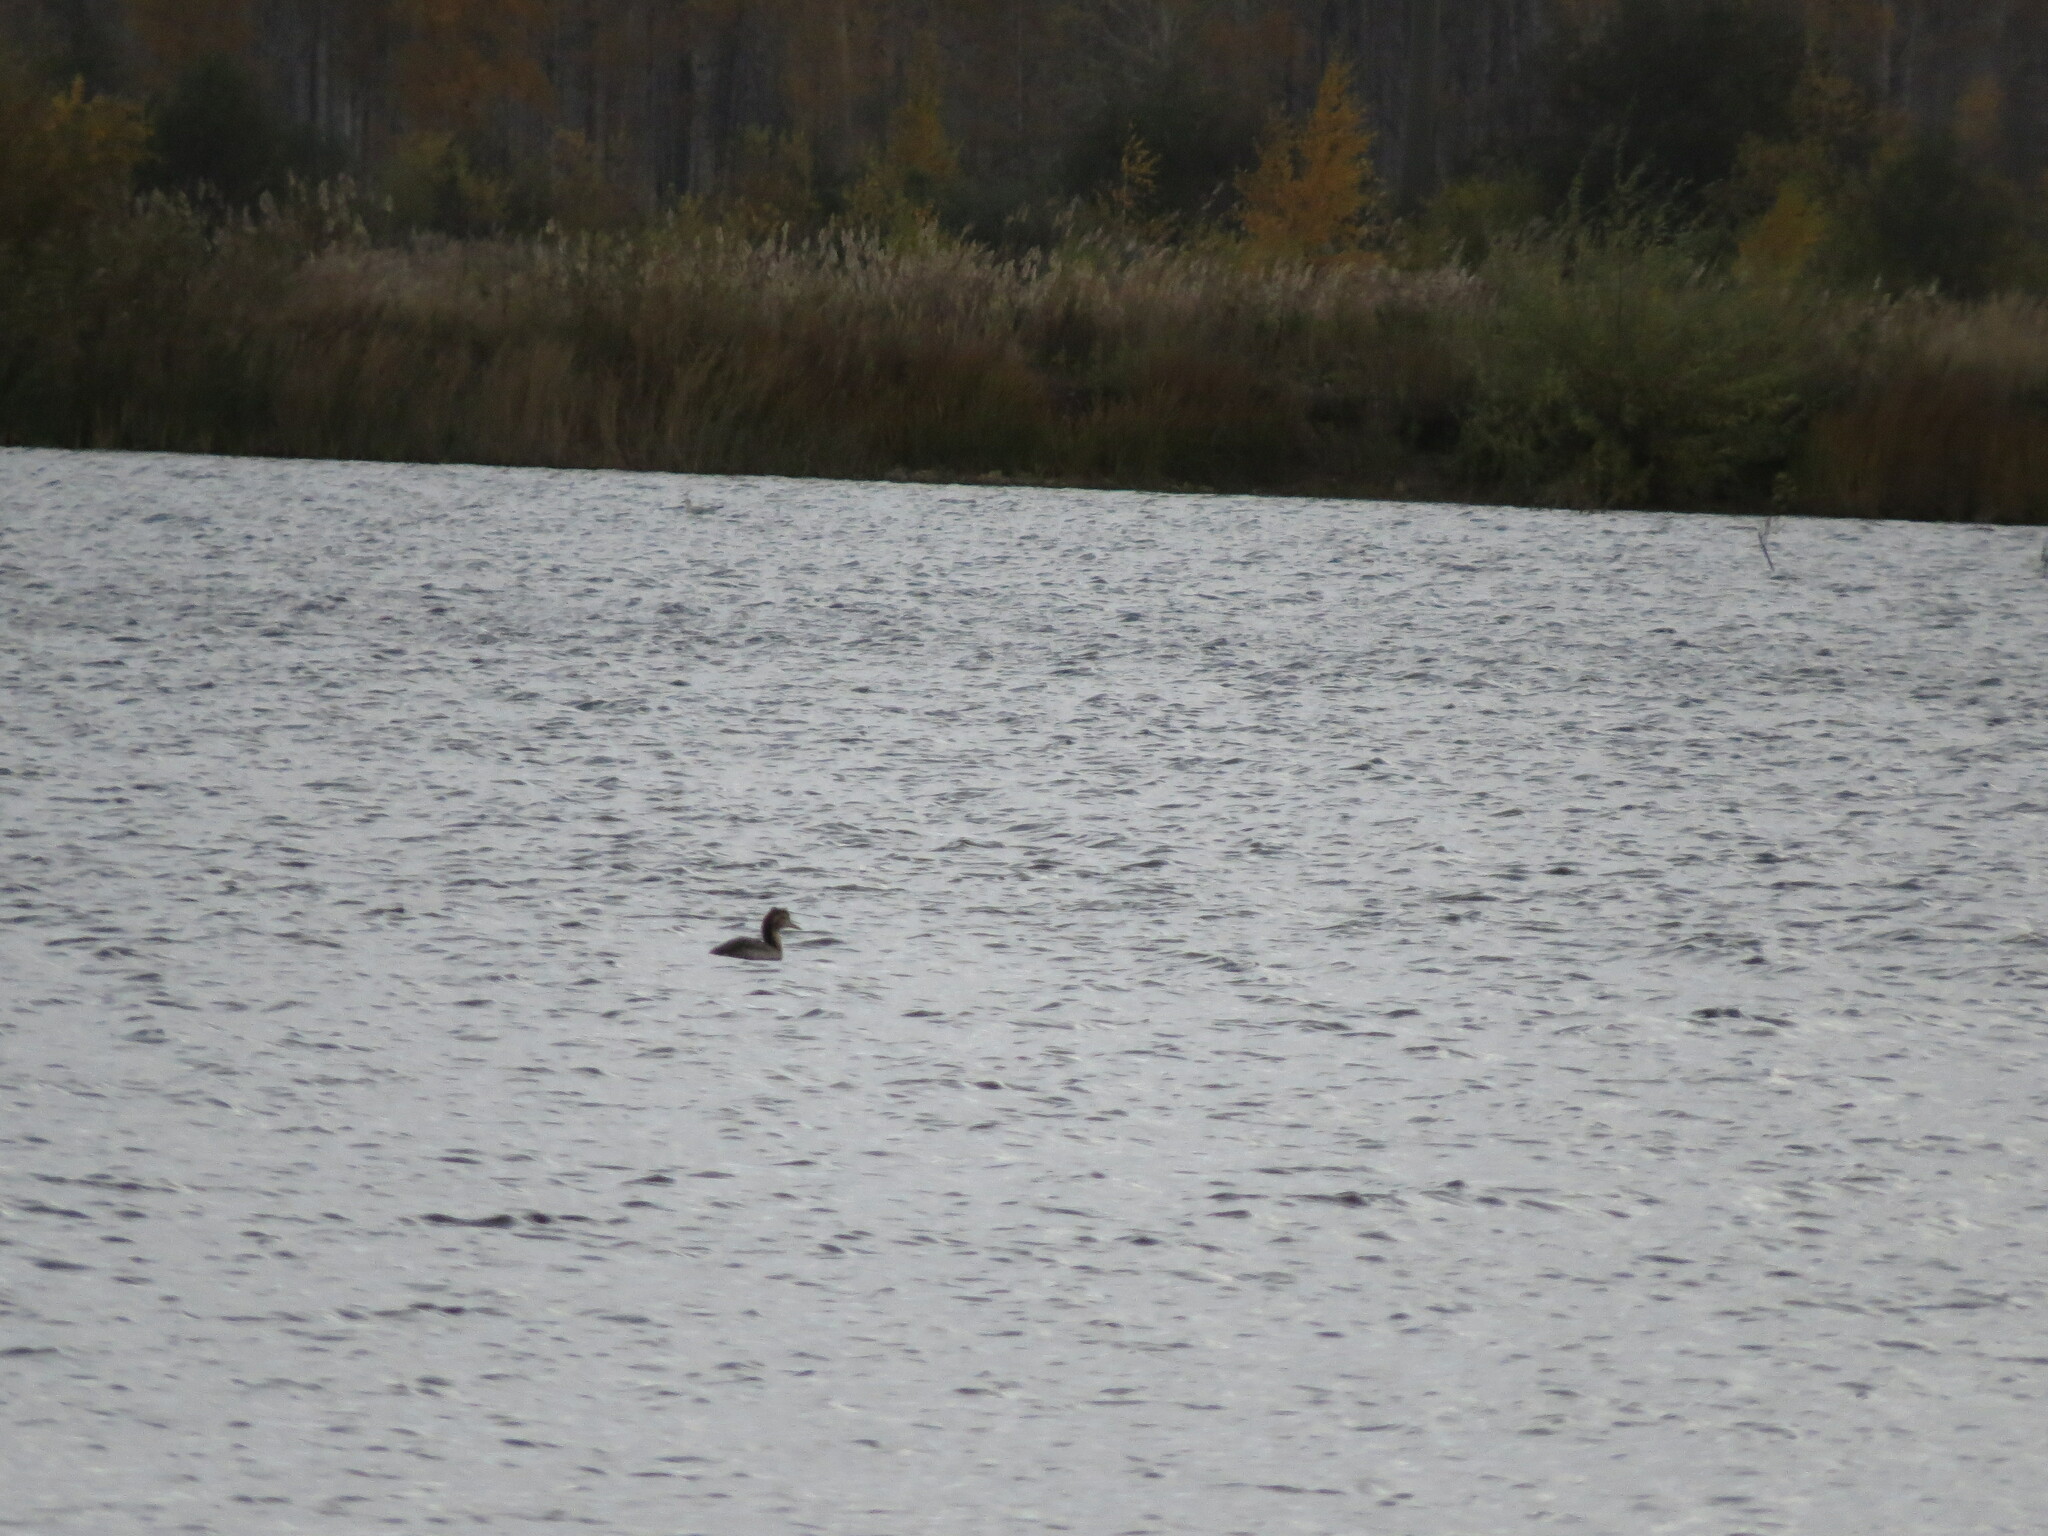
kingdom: Animalia
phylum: Chordata
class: Aves
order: Podicipediformes
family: Podicipedidae
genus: Podiceps
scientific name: Podiceps cristatus
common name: Great crested grebe
